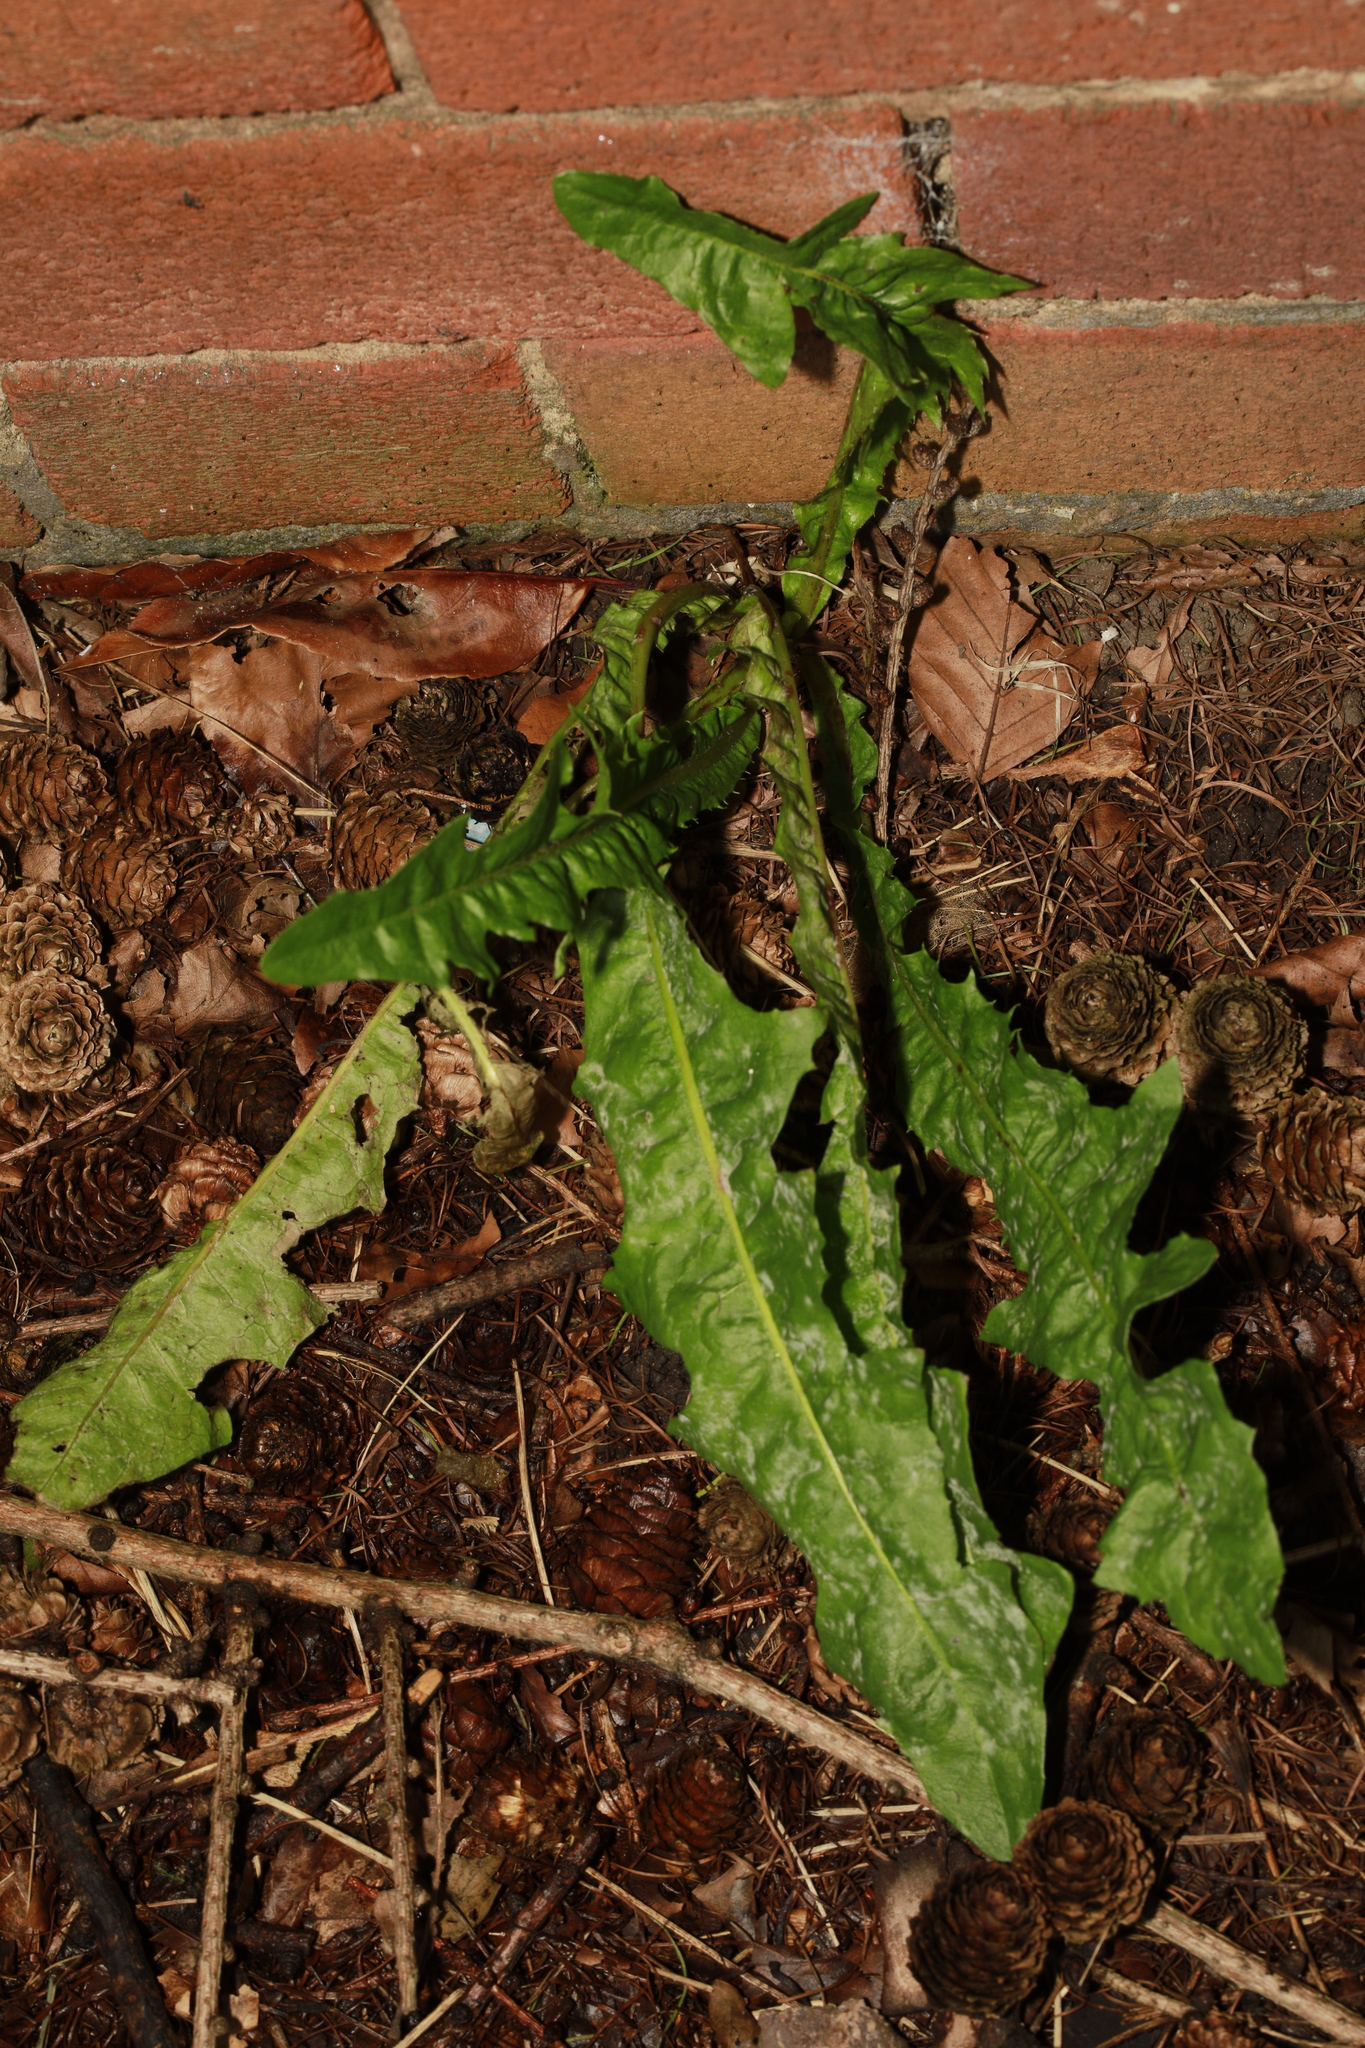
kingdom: Plantae
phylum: Tracheophyta
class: Magnoliopsida
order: Asterales
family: Asteraceae
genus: Taraxacum
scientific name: Taraxacum officinale
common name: Common dandelion
